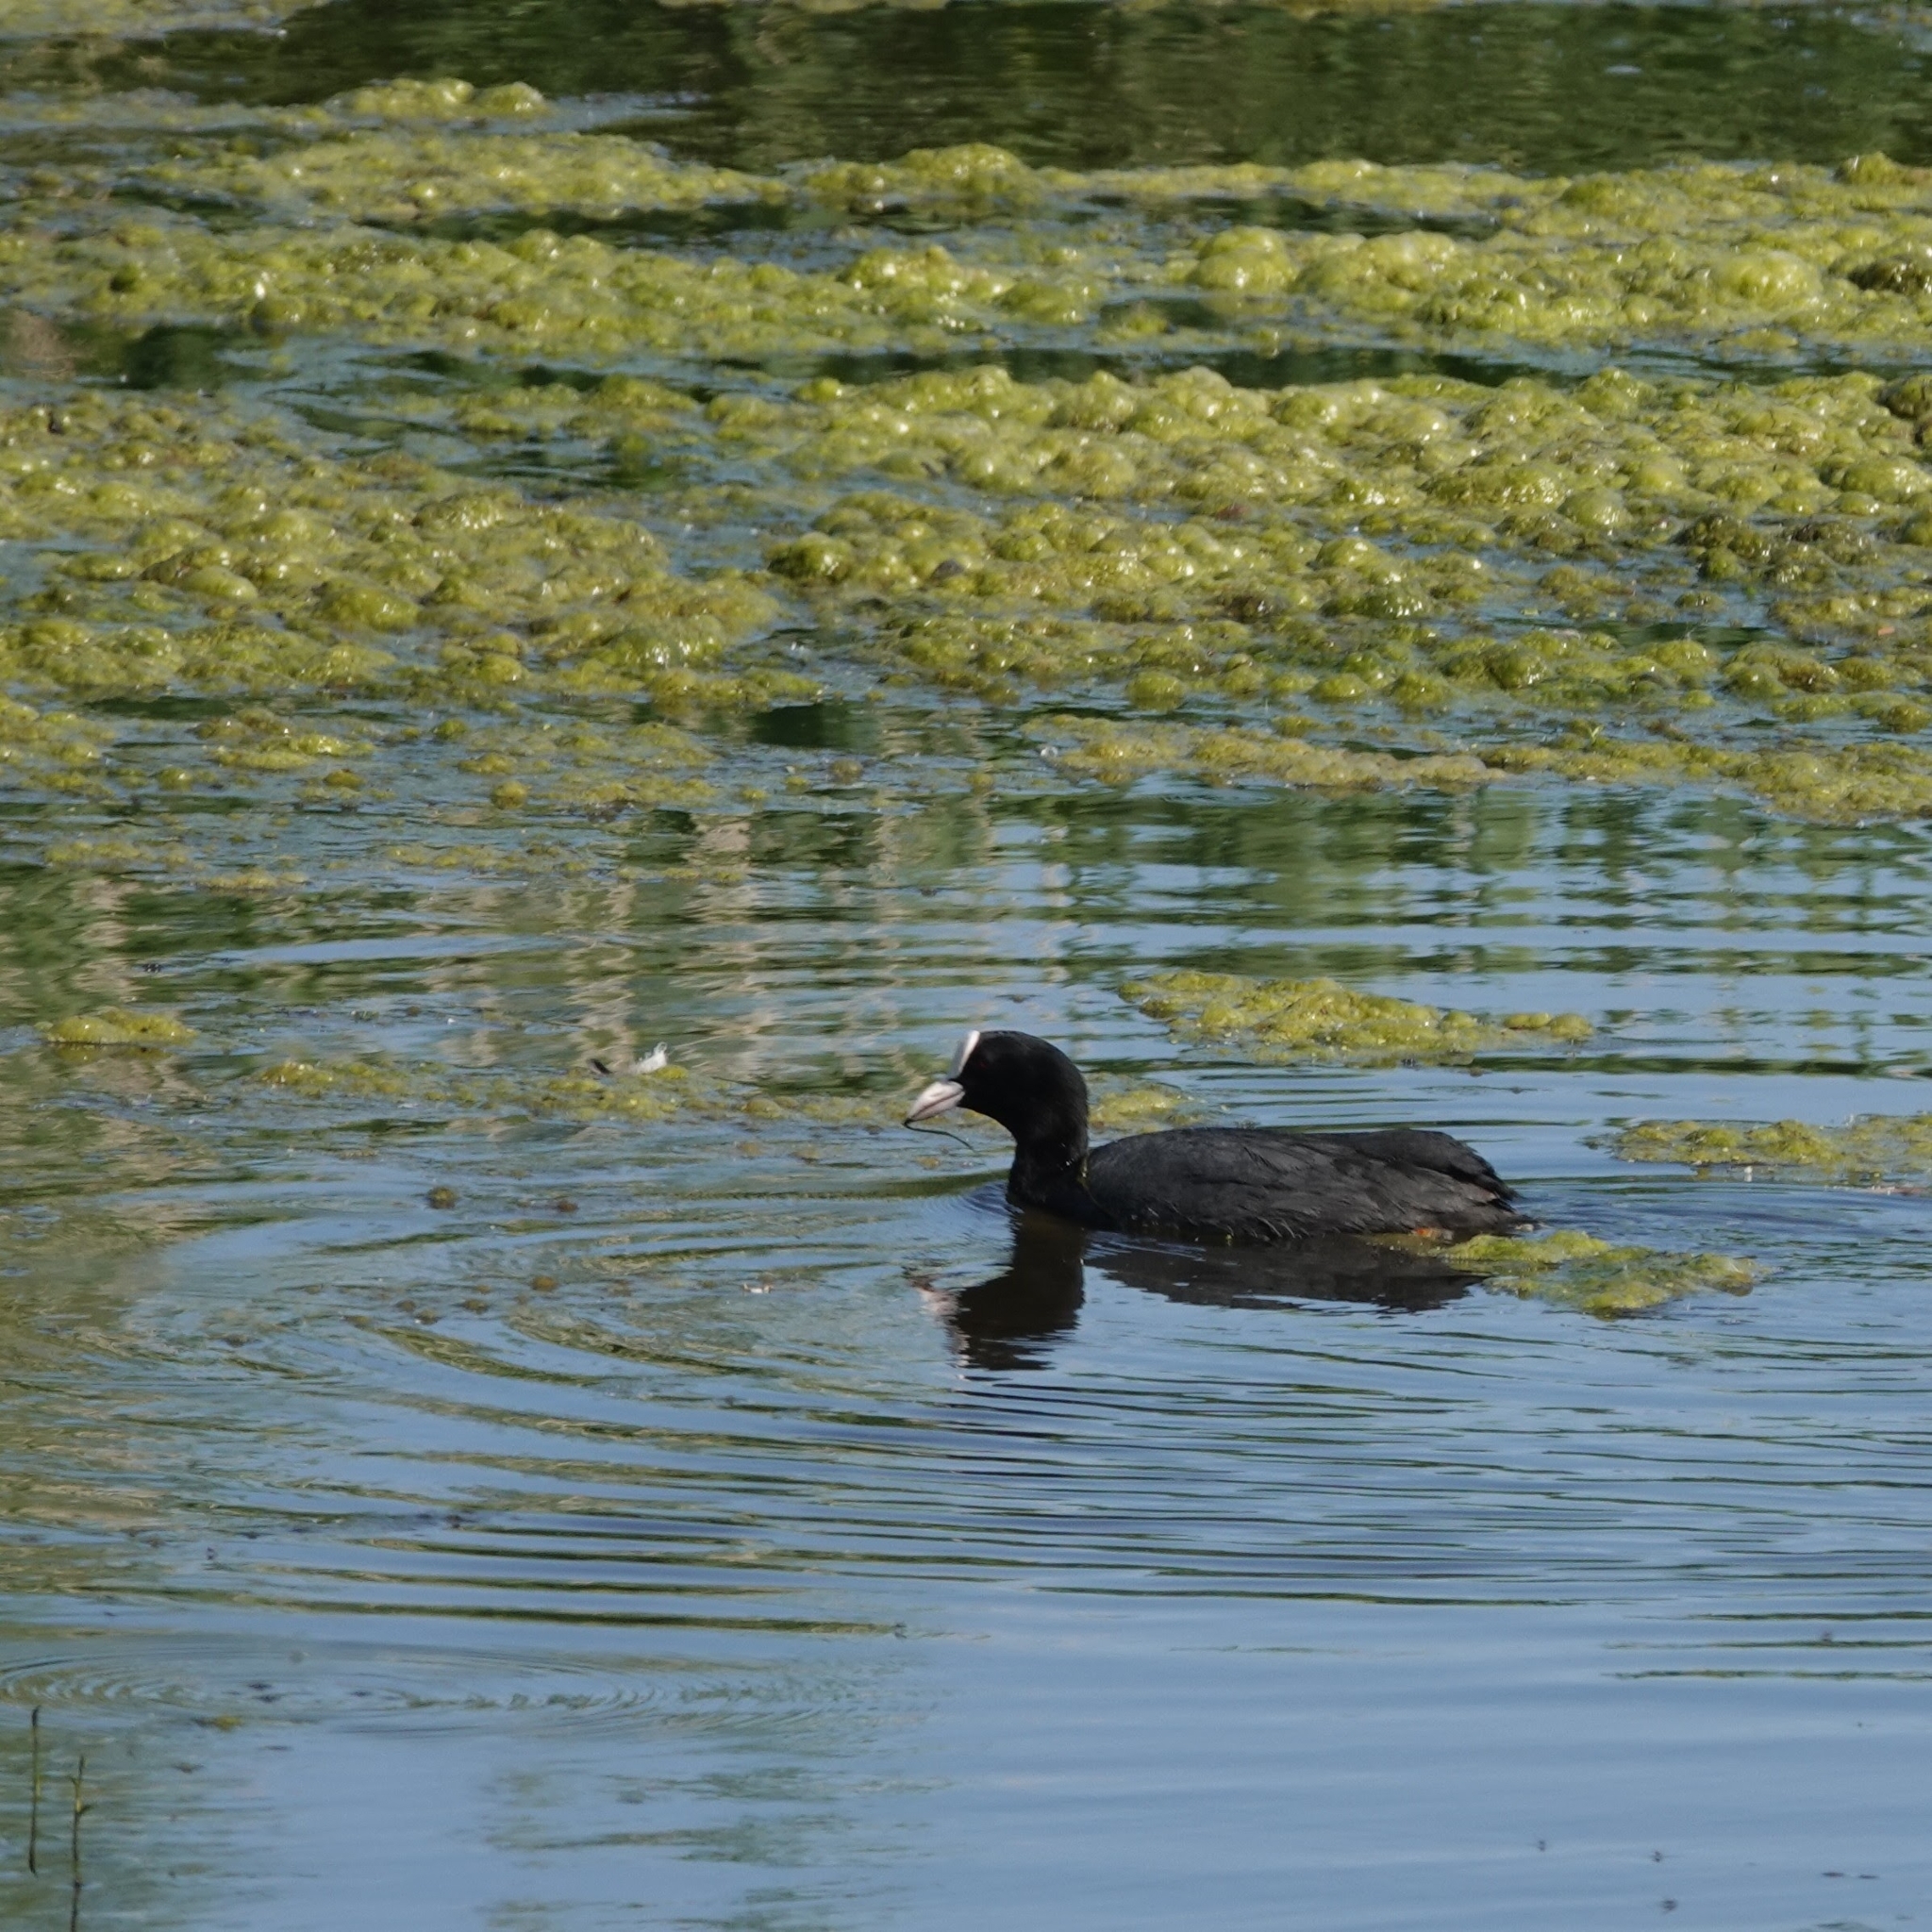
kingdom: Animalia
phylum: Chordata
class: Aves
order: Gruiformes
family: Rallidae
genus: Fulica
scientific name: Fulica atra
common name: Eurasian coot
